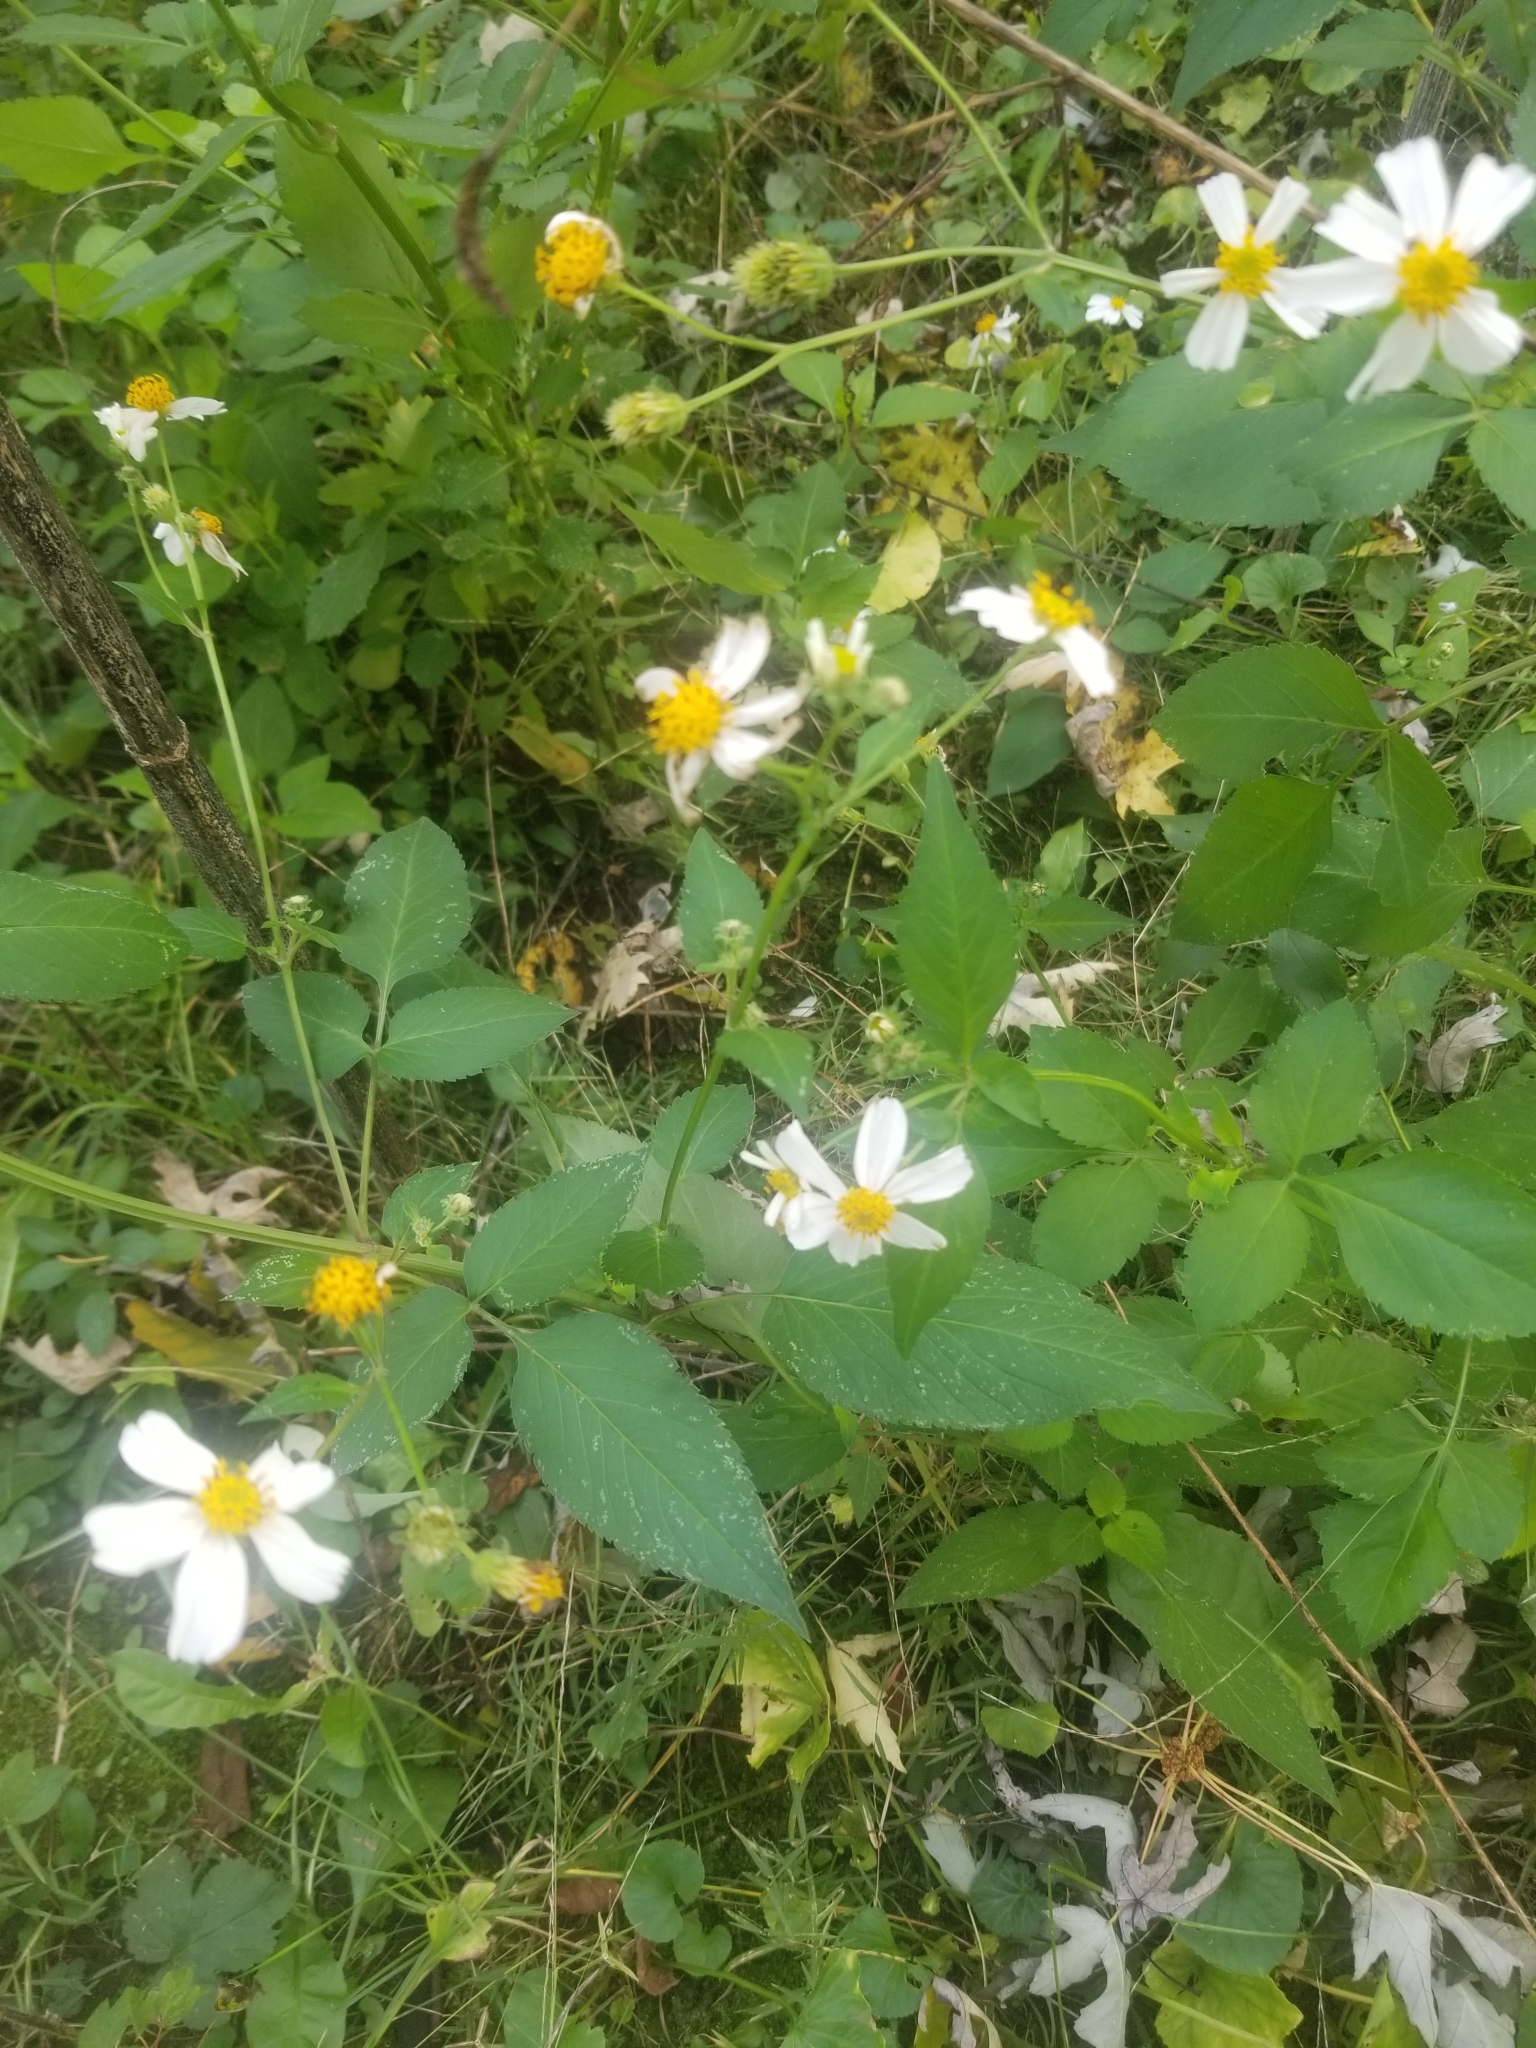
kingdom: Plantae
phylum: Tracheophyta
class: Magnoliopsida
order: Asterales
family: Asteraceae
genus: Bidens
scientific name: Bidens alba
